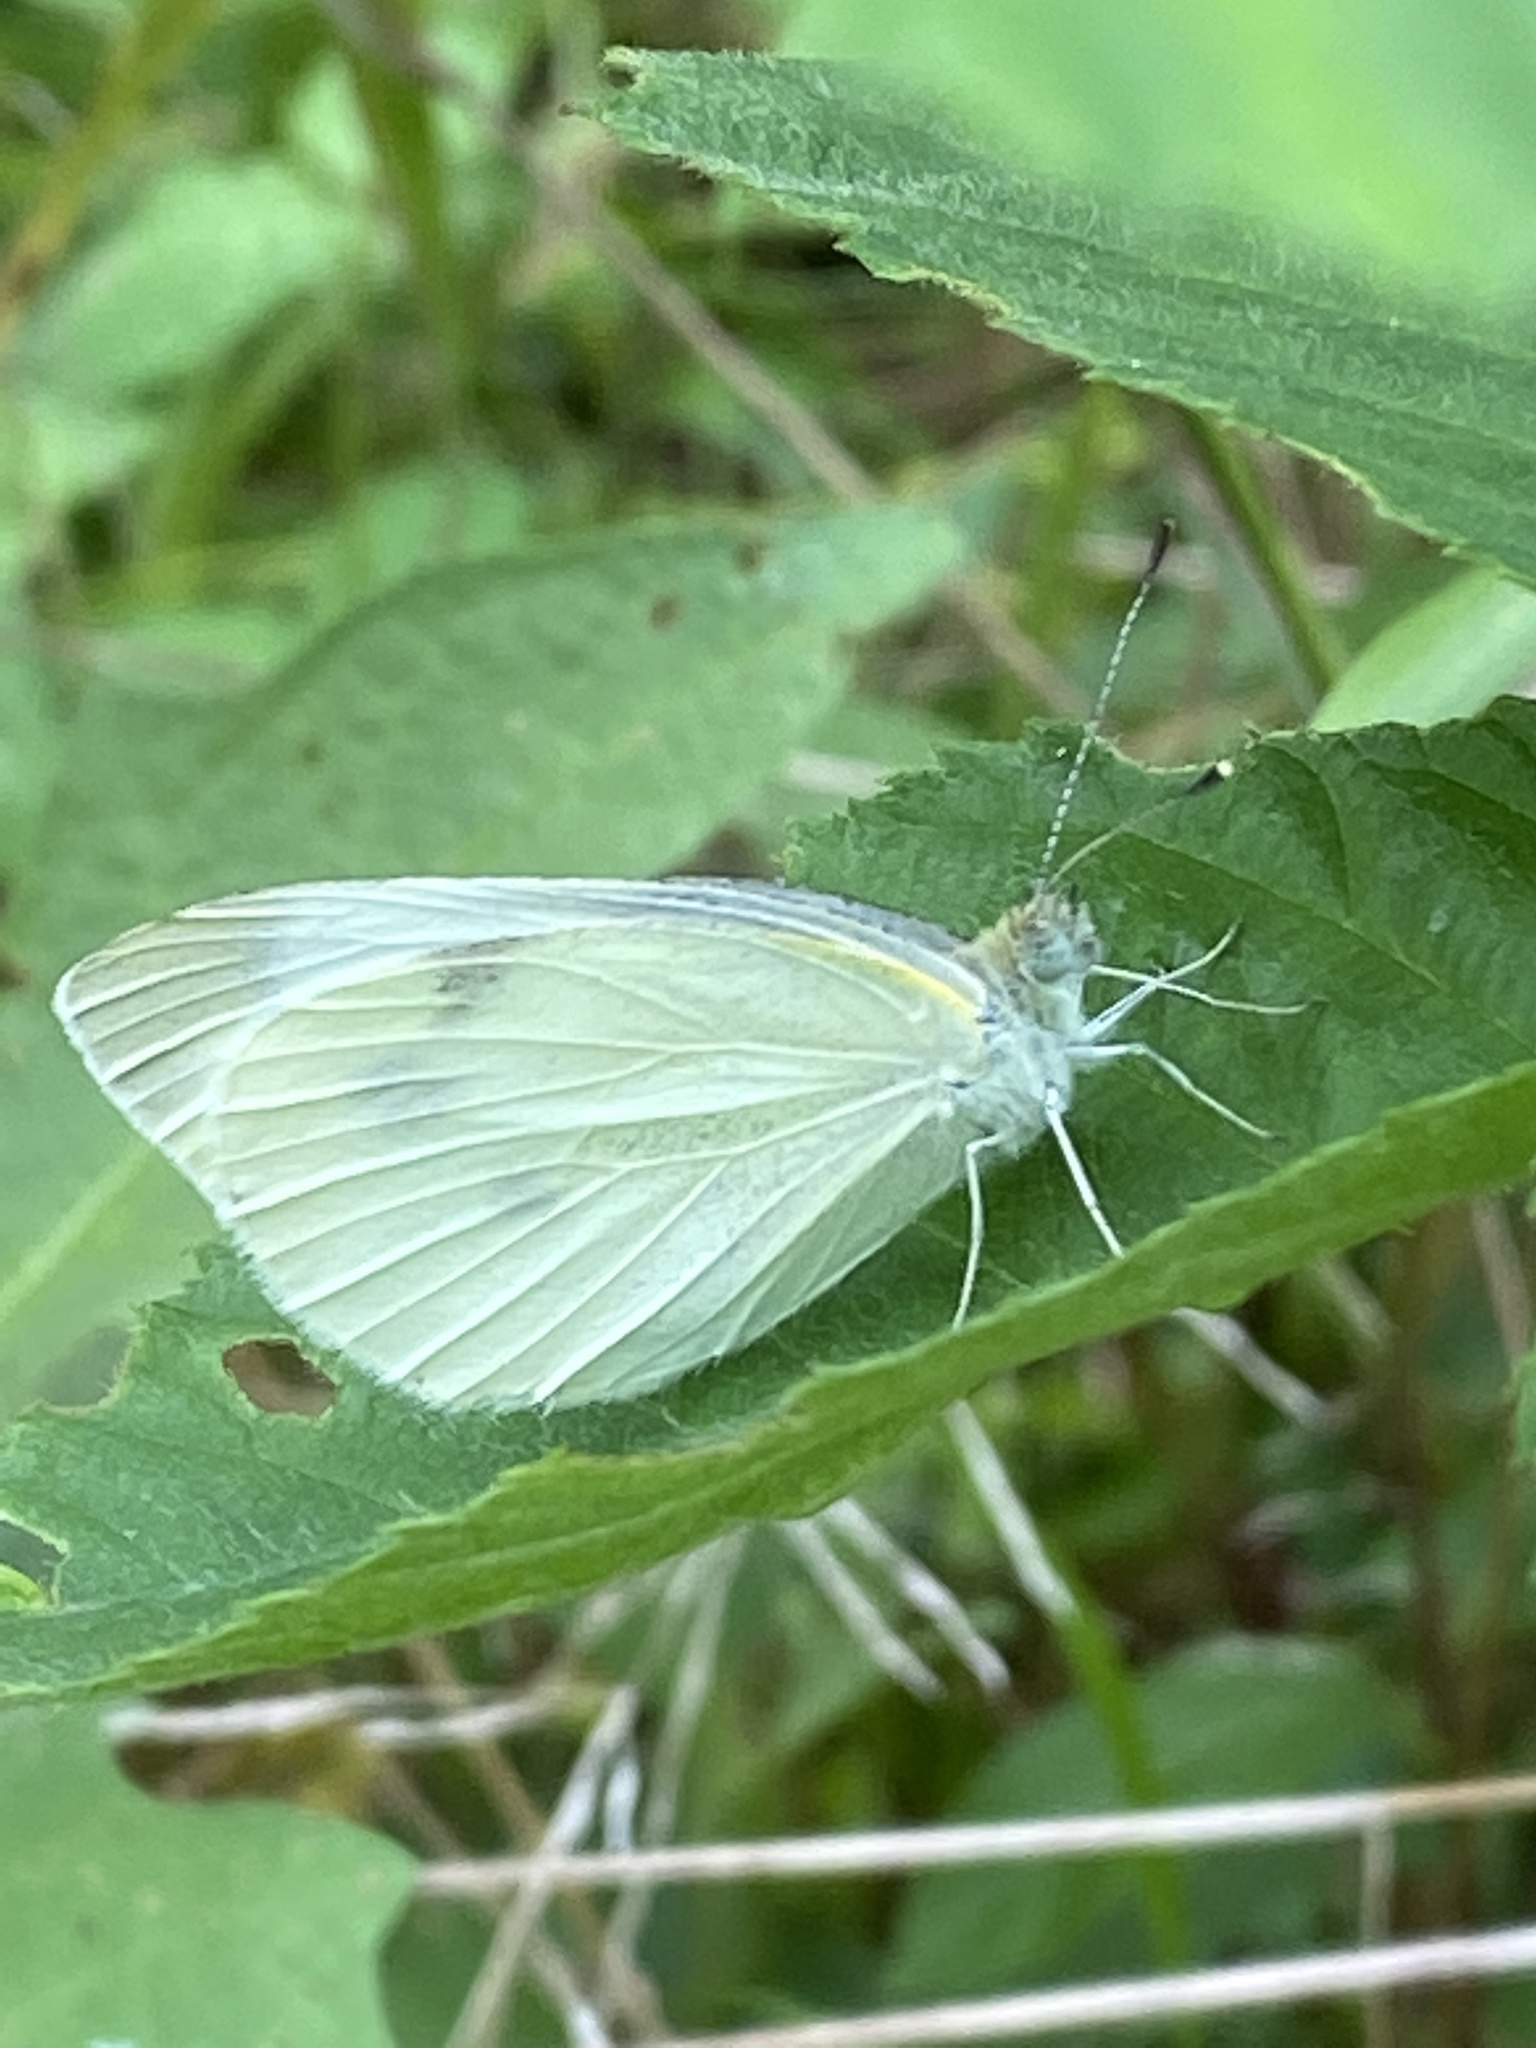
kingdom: Animalia
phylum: Arthropoda
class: Insecta
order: Lepidoptera
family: Pieridae
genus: Pieris
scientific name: Pieris rapae
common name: Small white
